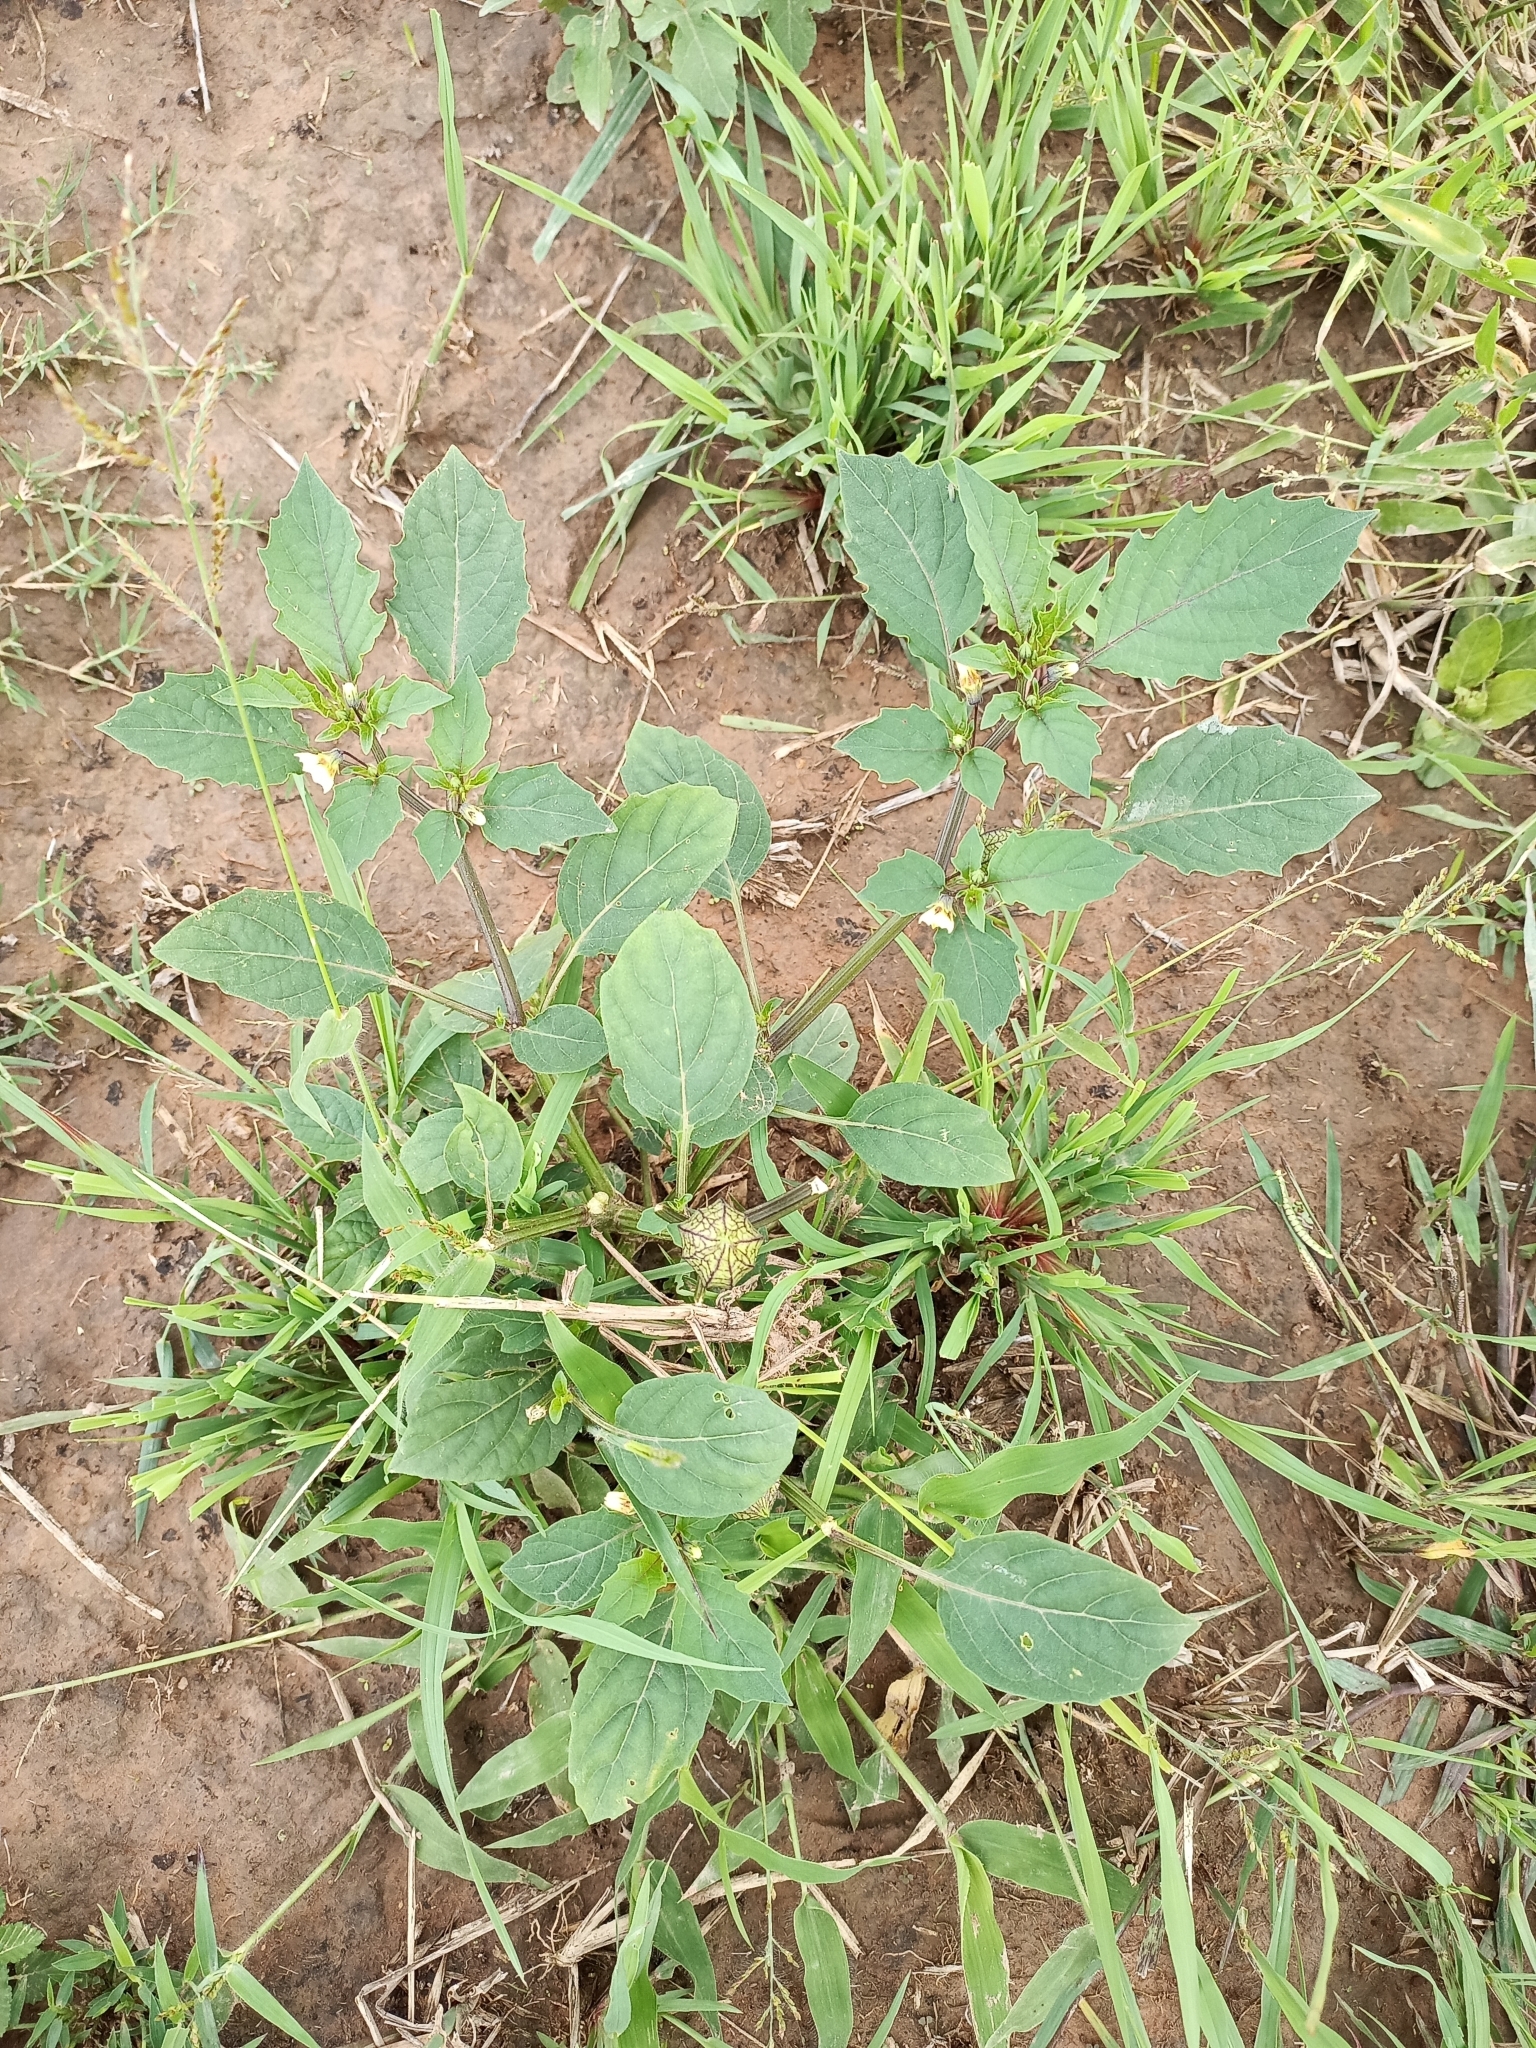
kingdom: Plantae
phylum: Tracheophyta
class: Magnoliopsida
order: Solanales
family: Solanaceae
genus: Physalis
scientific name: Physalis angulata
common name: Angular winter-cherry
